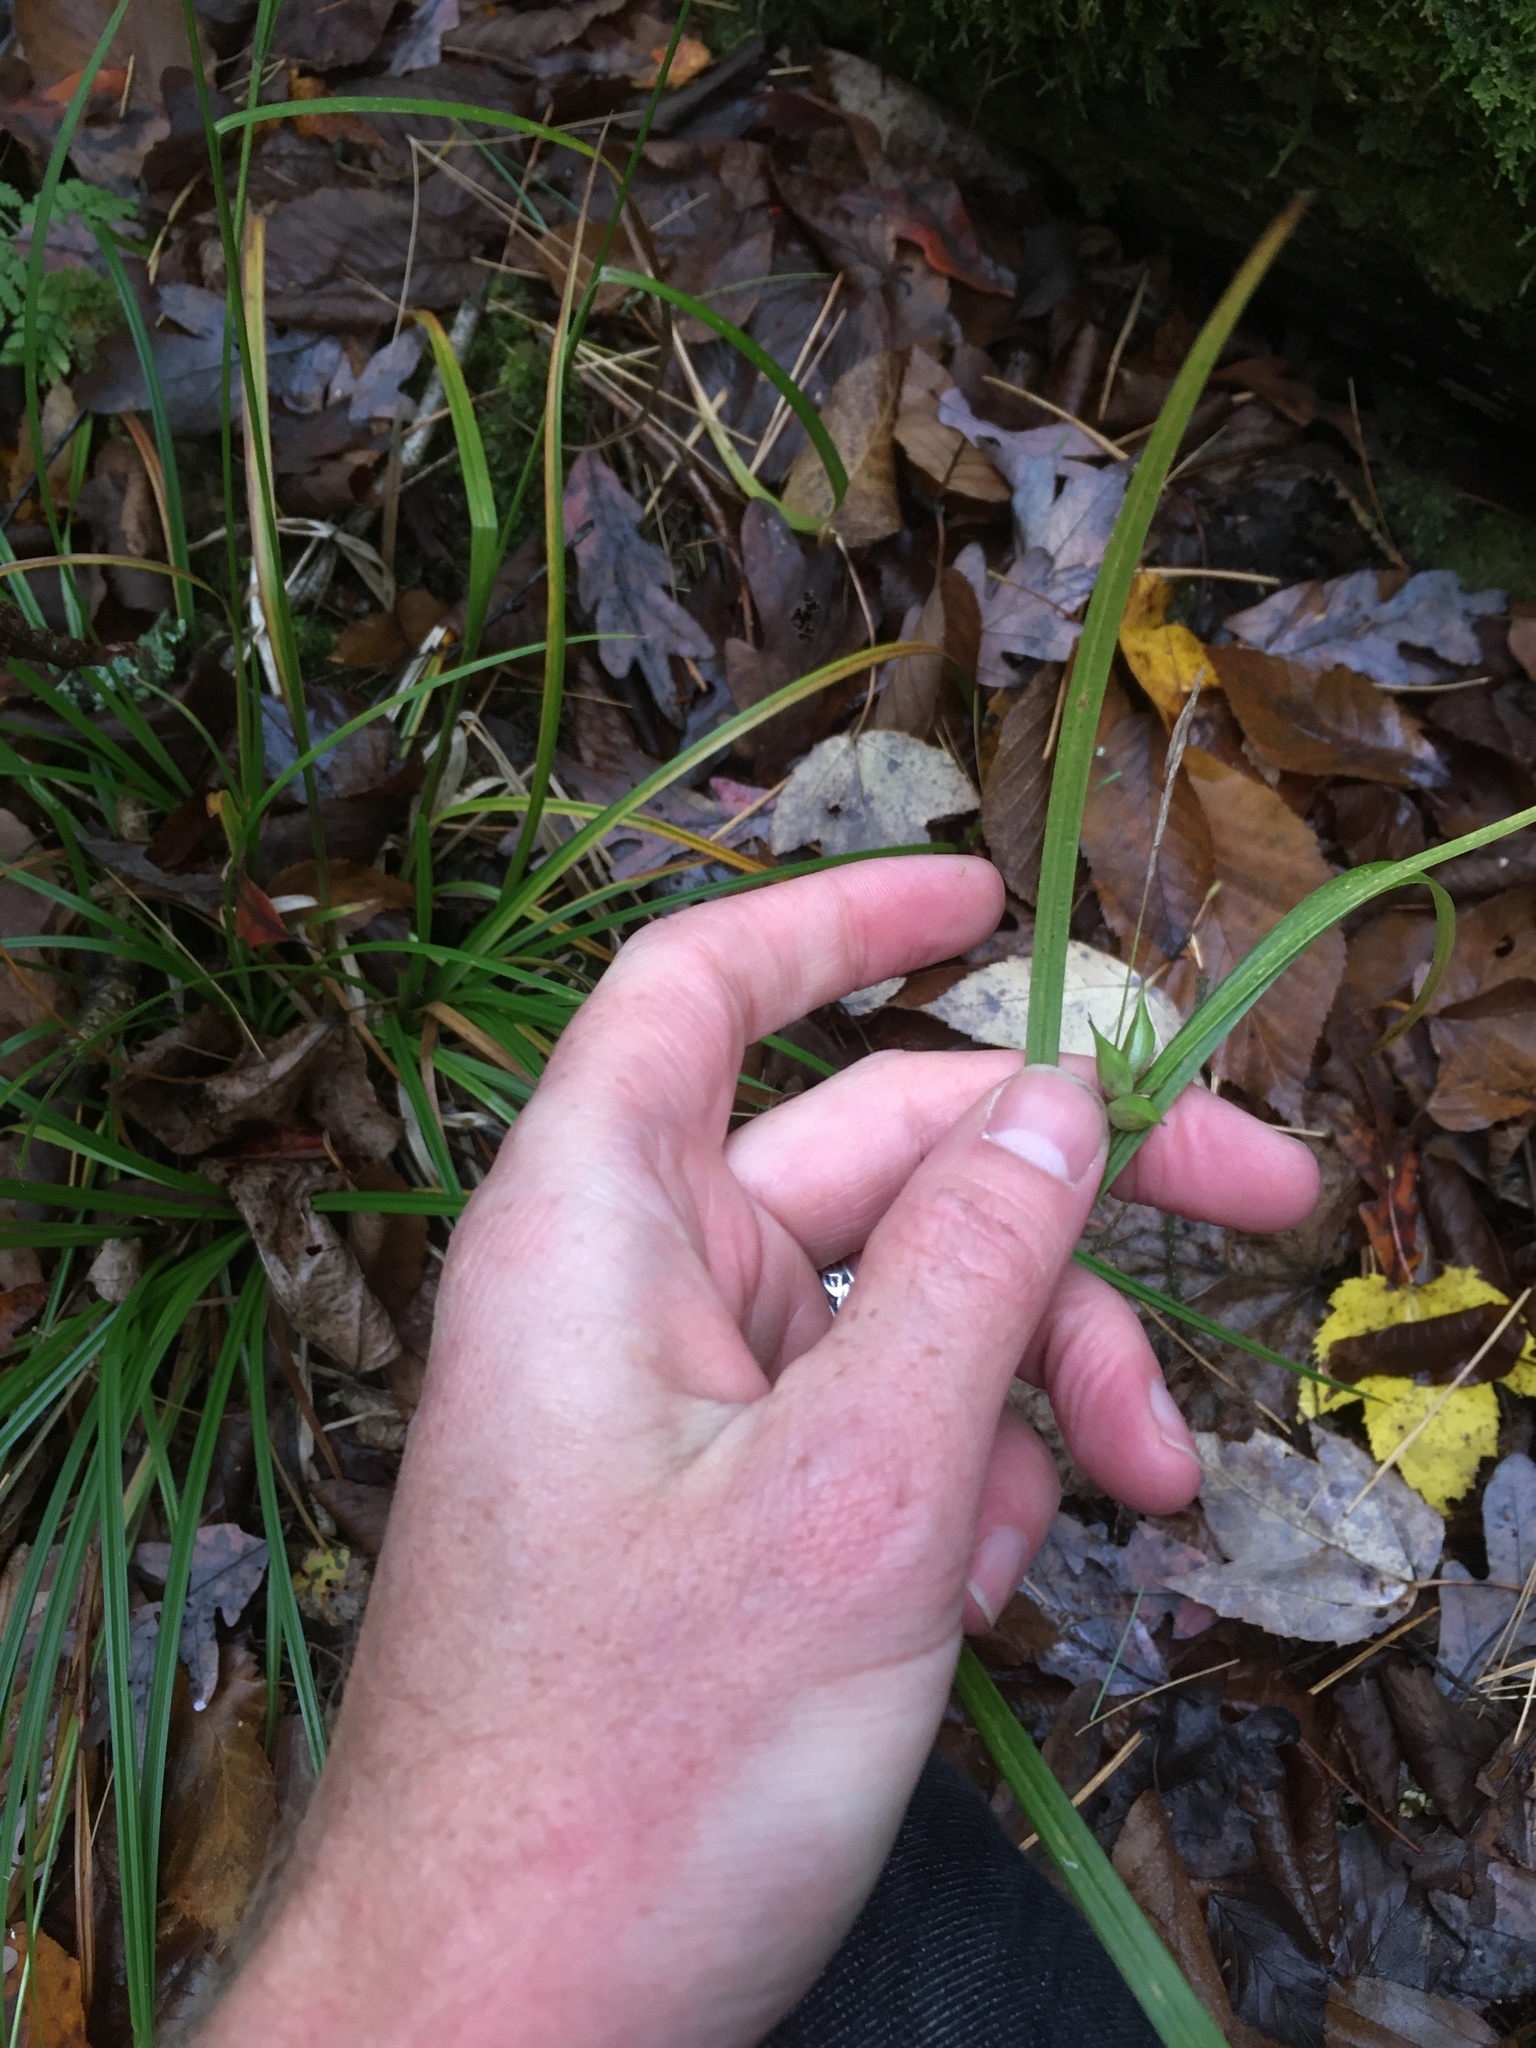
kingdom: Plantae
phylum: Tracheophyta
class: Liliopsida
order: Poales
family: Cyperaceae
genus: Carex
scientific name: Carex intumescens
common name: Greater bladder sedge
